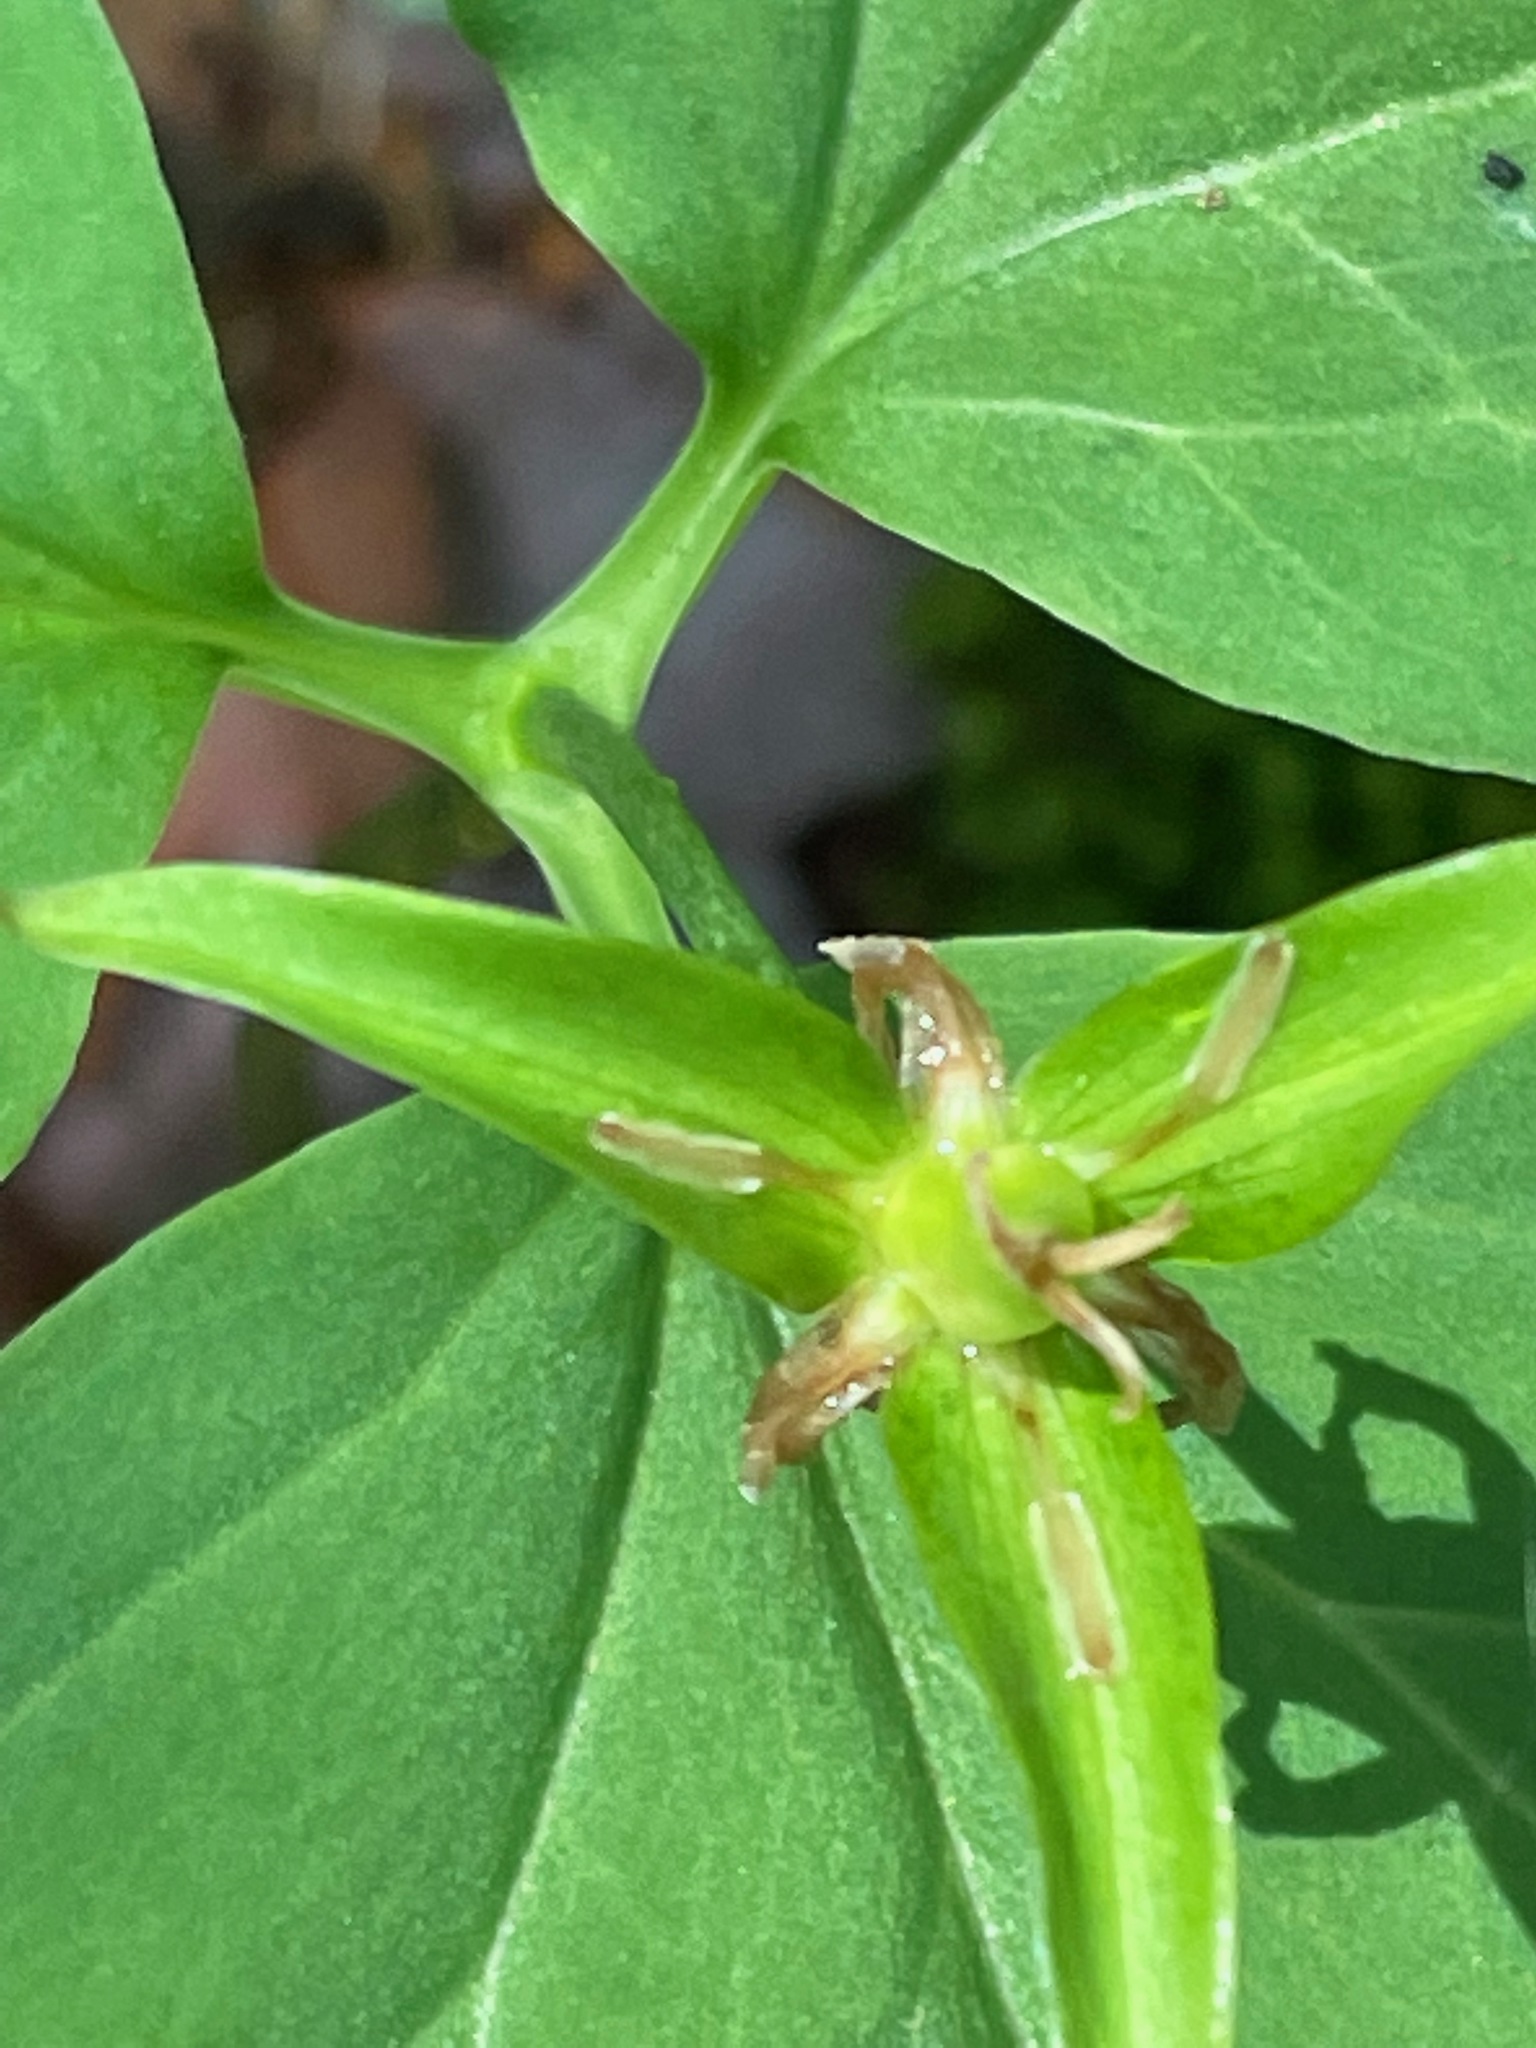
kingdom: Plantae
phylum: Tracheophyta
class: Liliopsida
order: Liliales
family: Melanthiaceae
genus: Trillium
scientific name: Trillium undulatum
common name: Paint trillium
